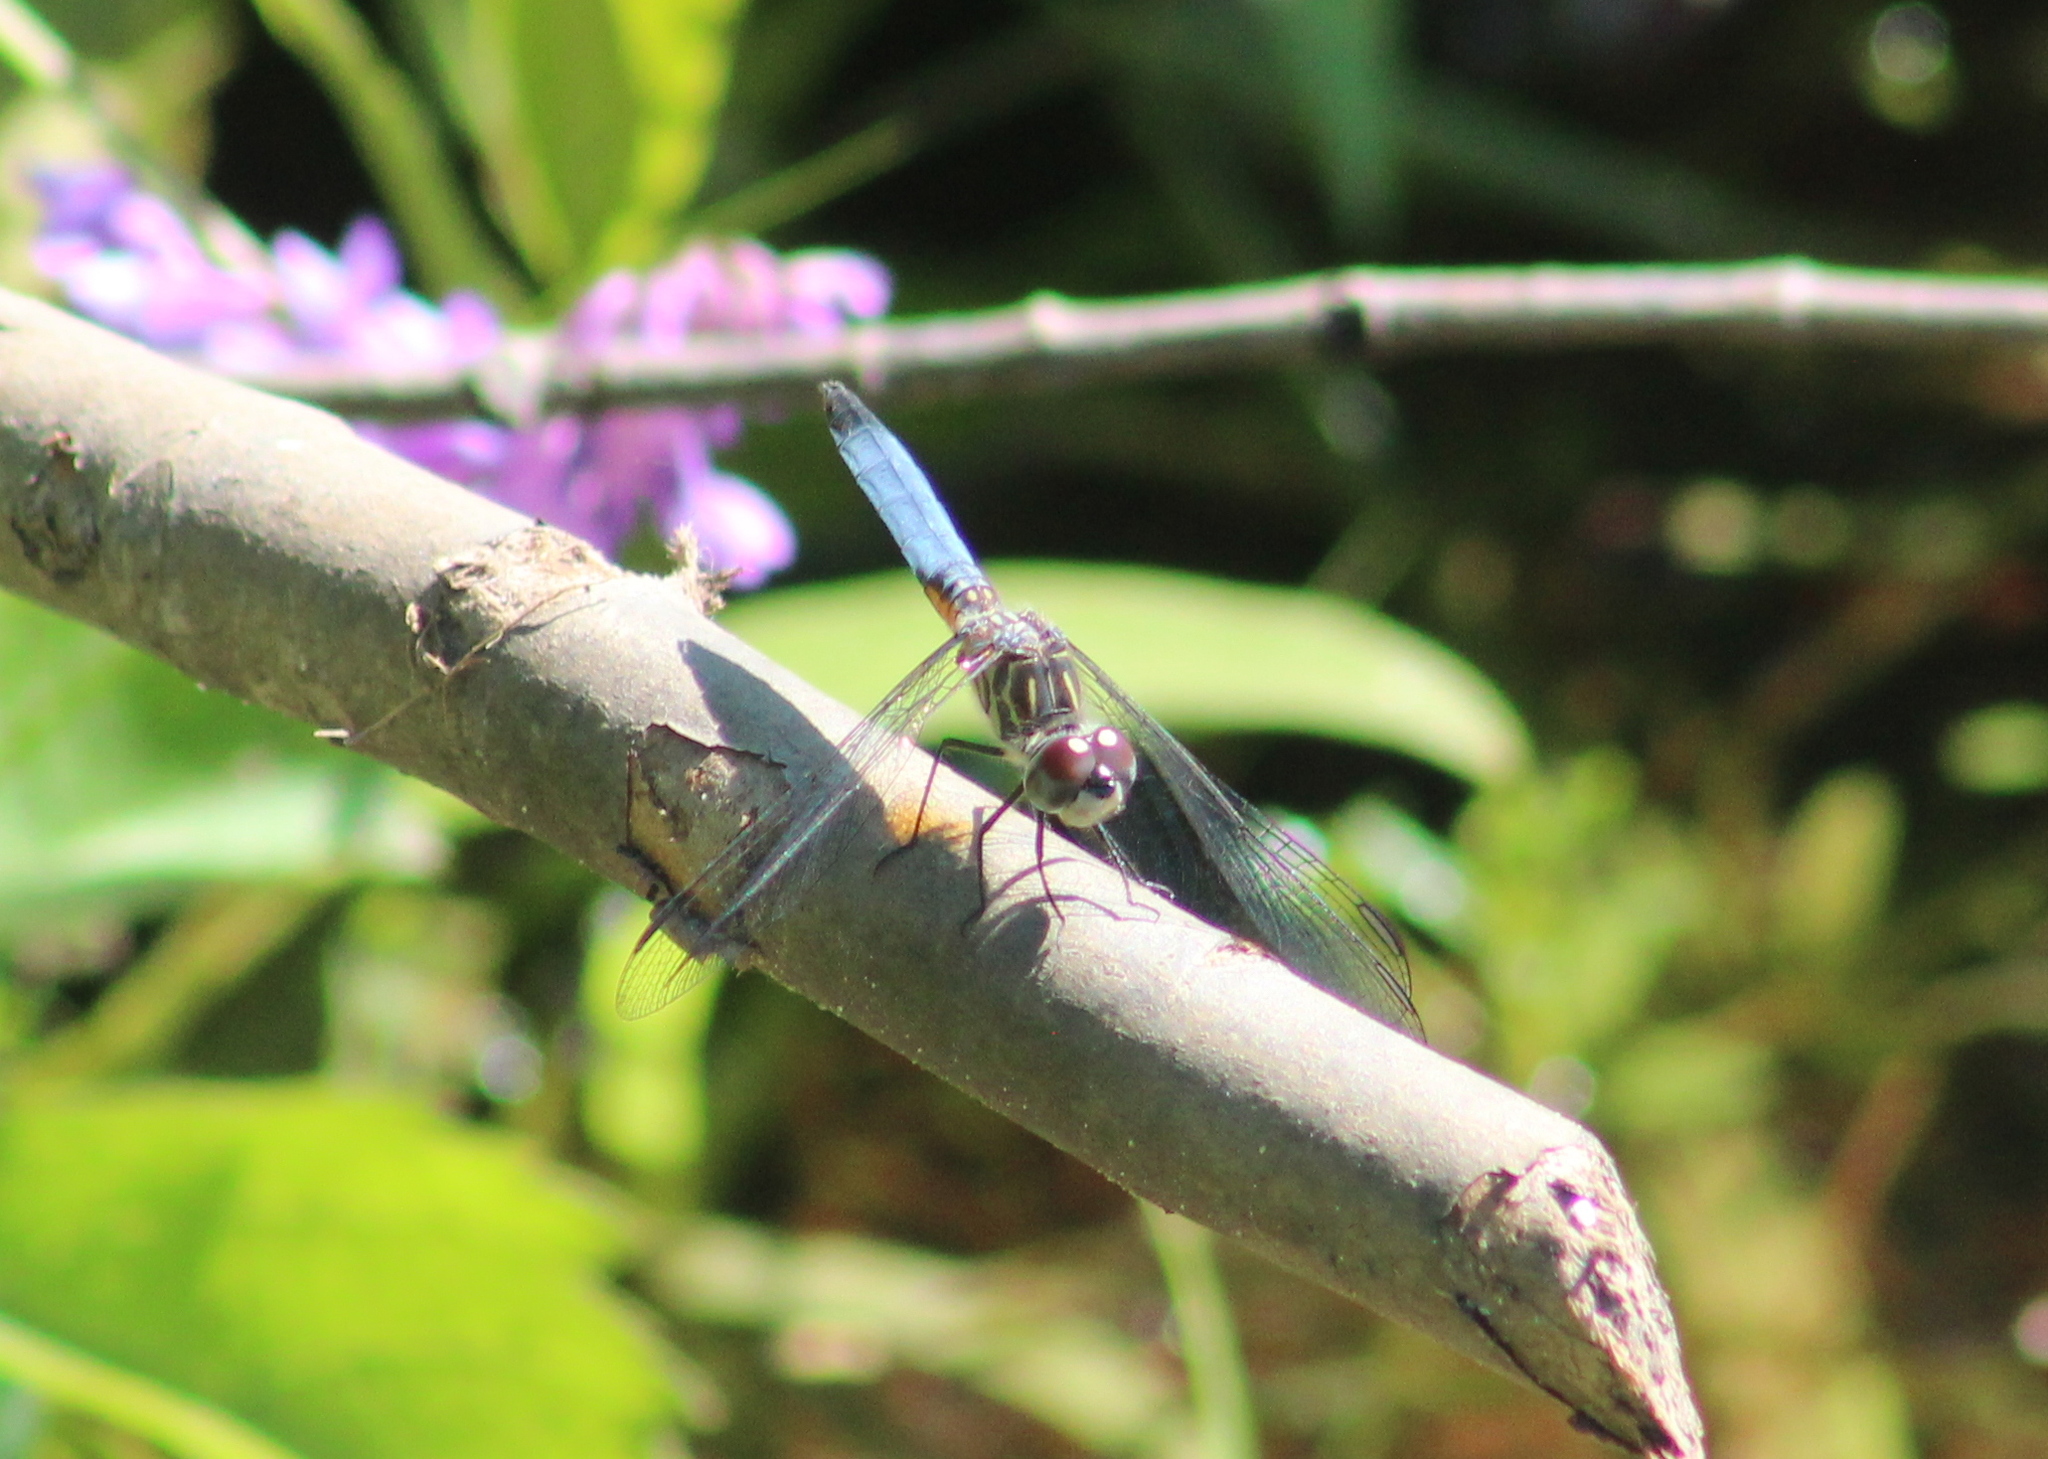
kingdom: Animalia
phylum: Arthropoda
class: Insecta
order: Odonata
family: Libellulidae
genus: Pachydiplax
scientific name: Pachydiplax longipennis
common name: Blue dasher
